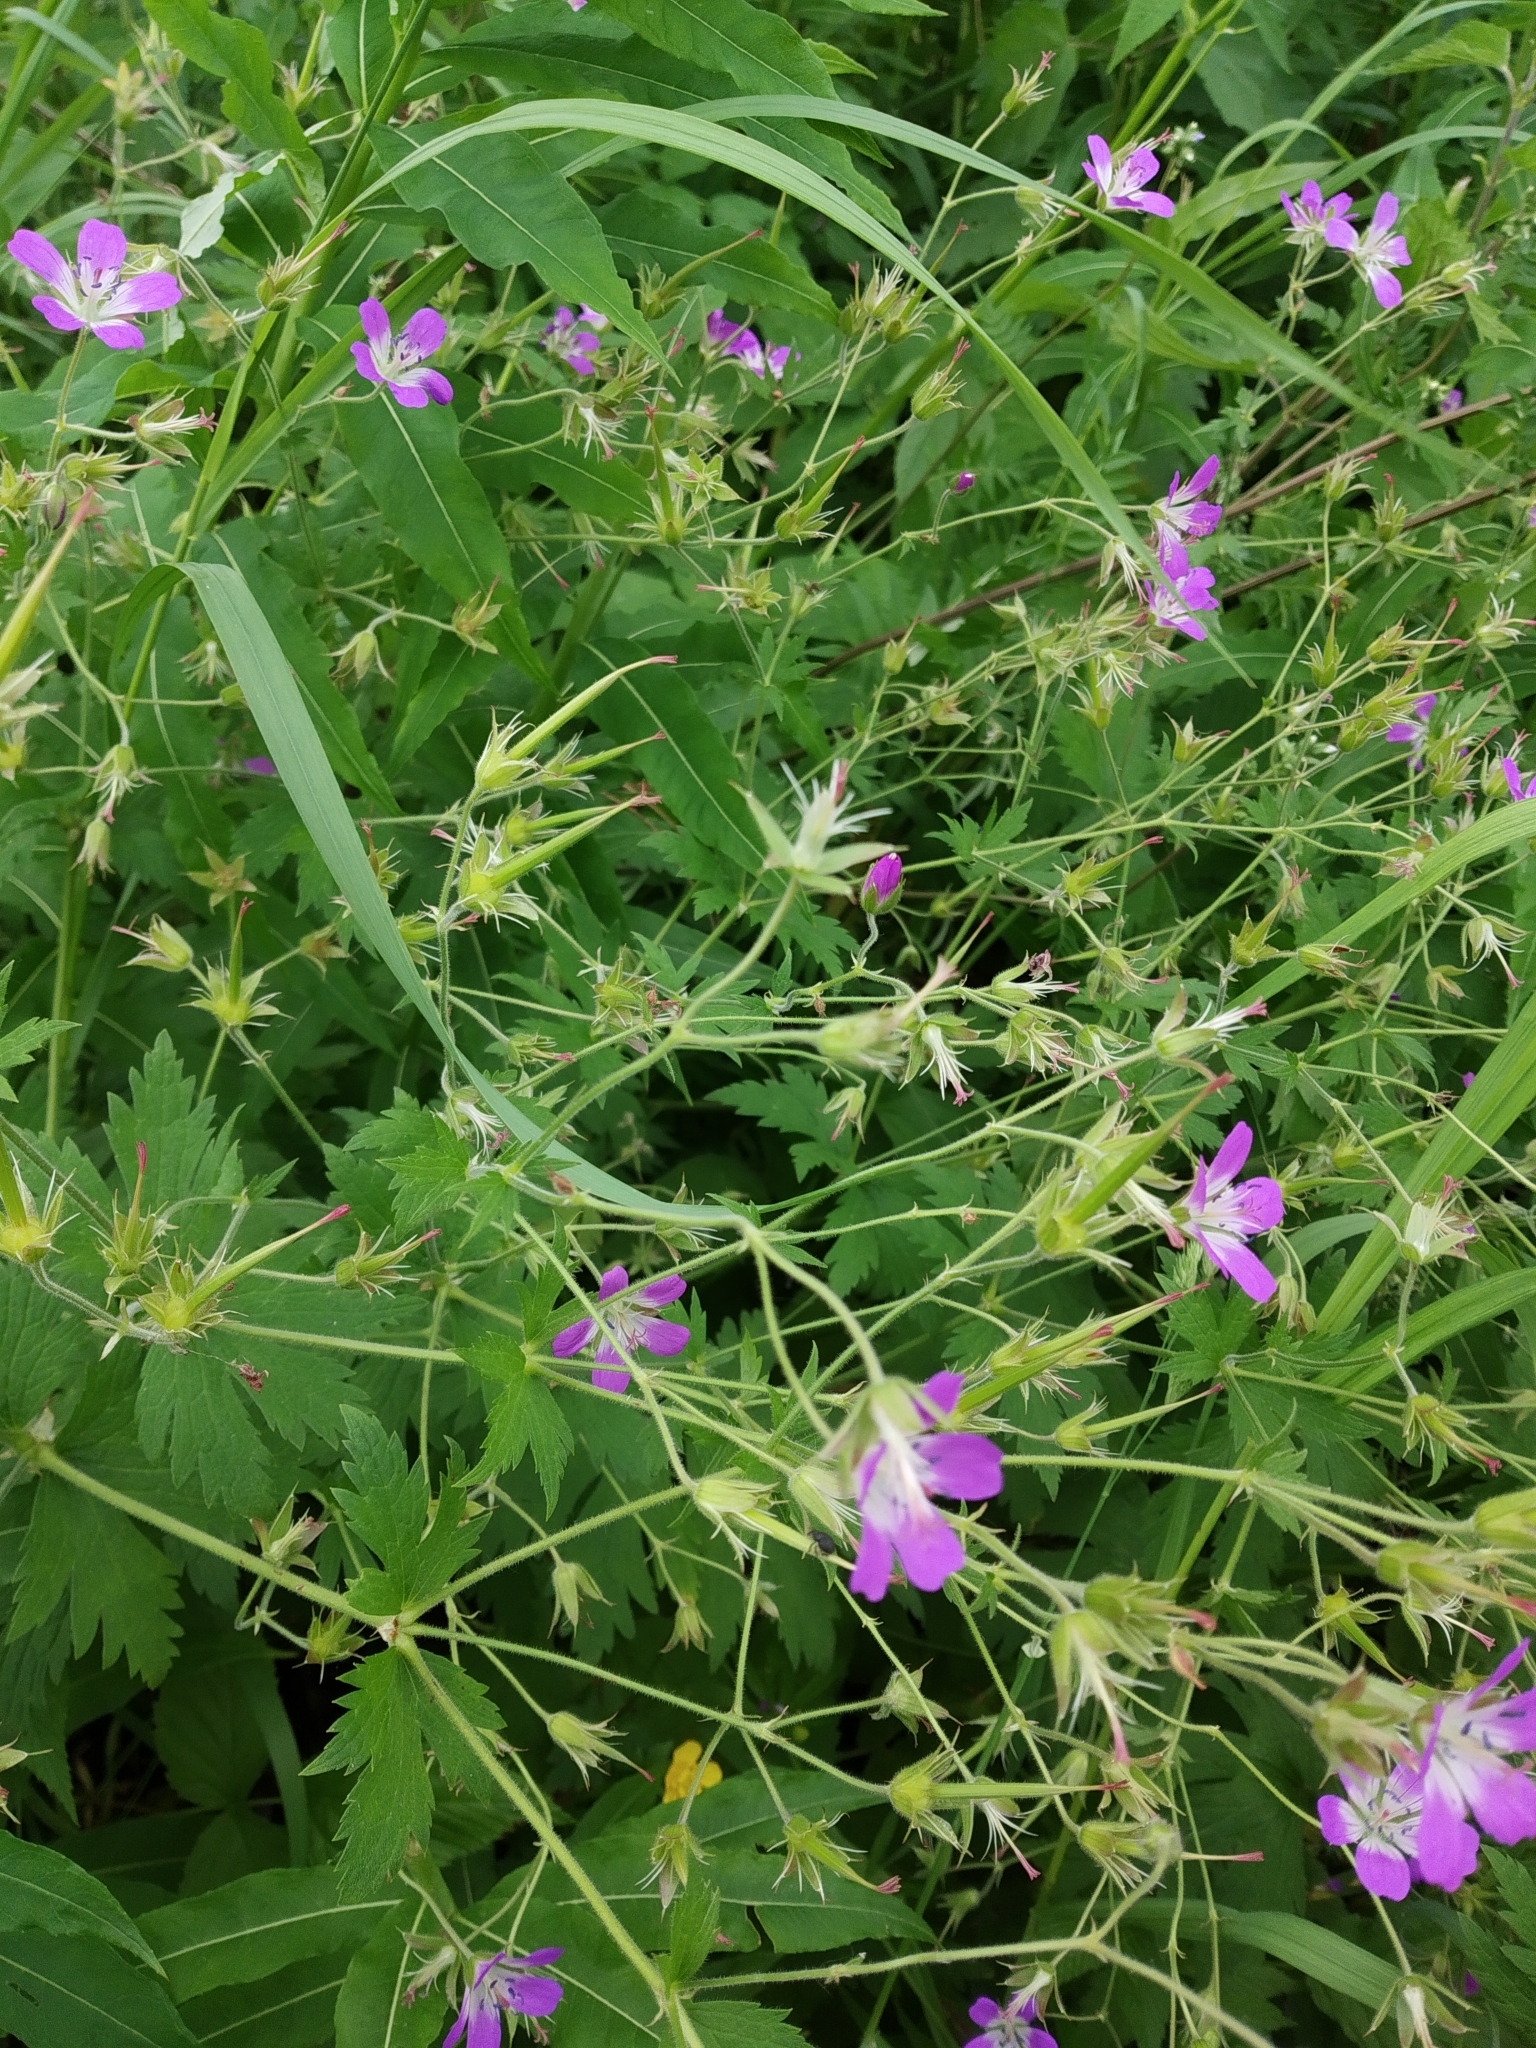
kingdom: Plantae
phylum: Tracheophyta
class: Magnoliopsida
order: Geraniales
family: Geraniaceae
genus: Geranium
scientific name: Geranium sylvaticum
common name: Wood crane's-bill
